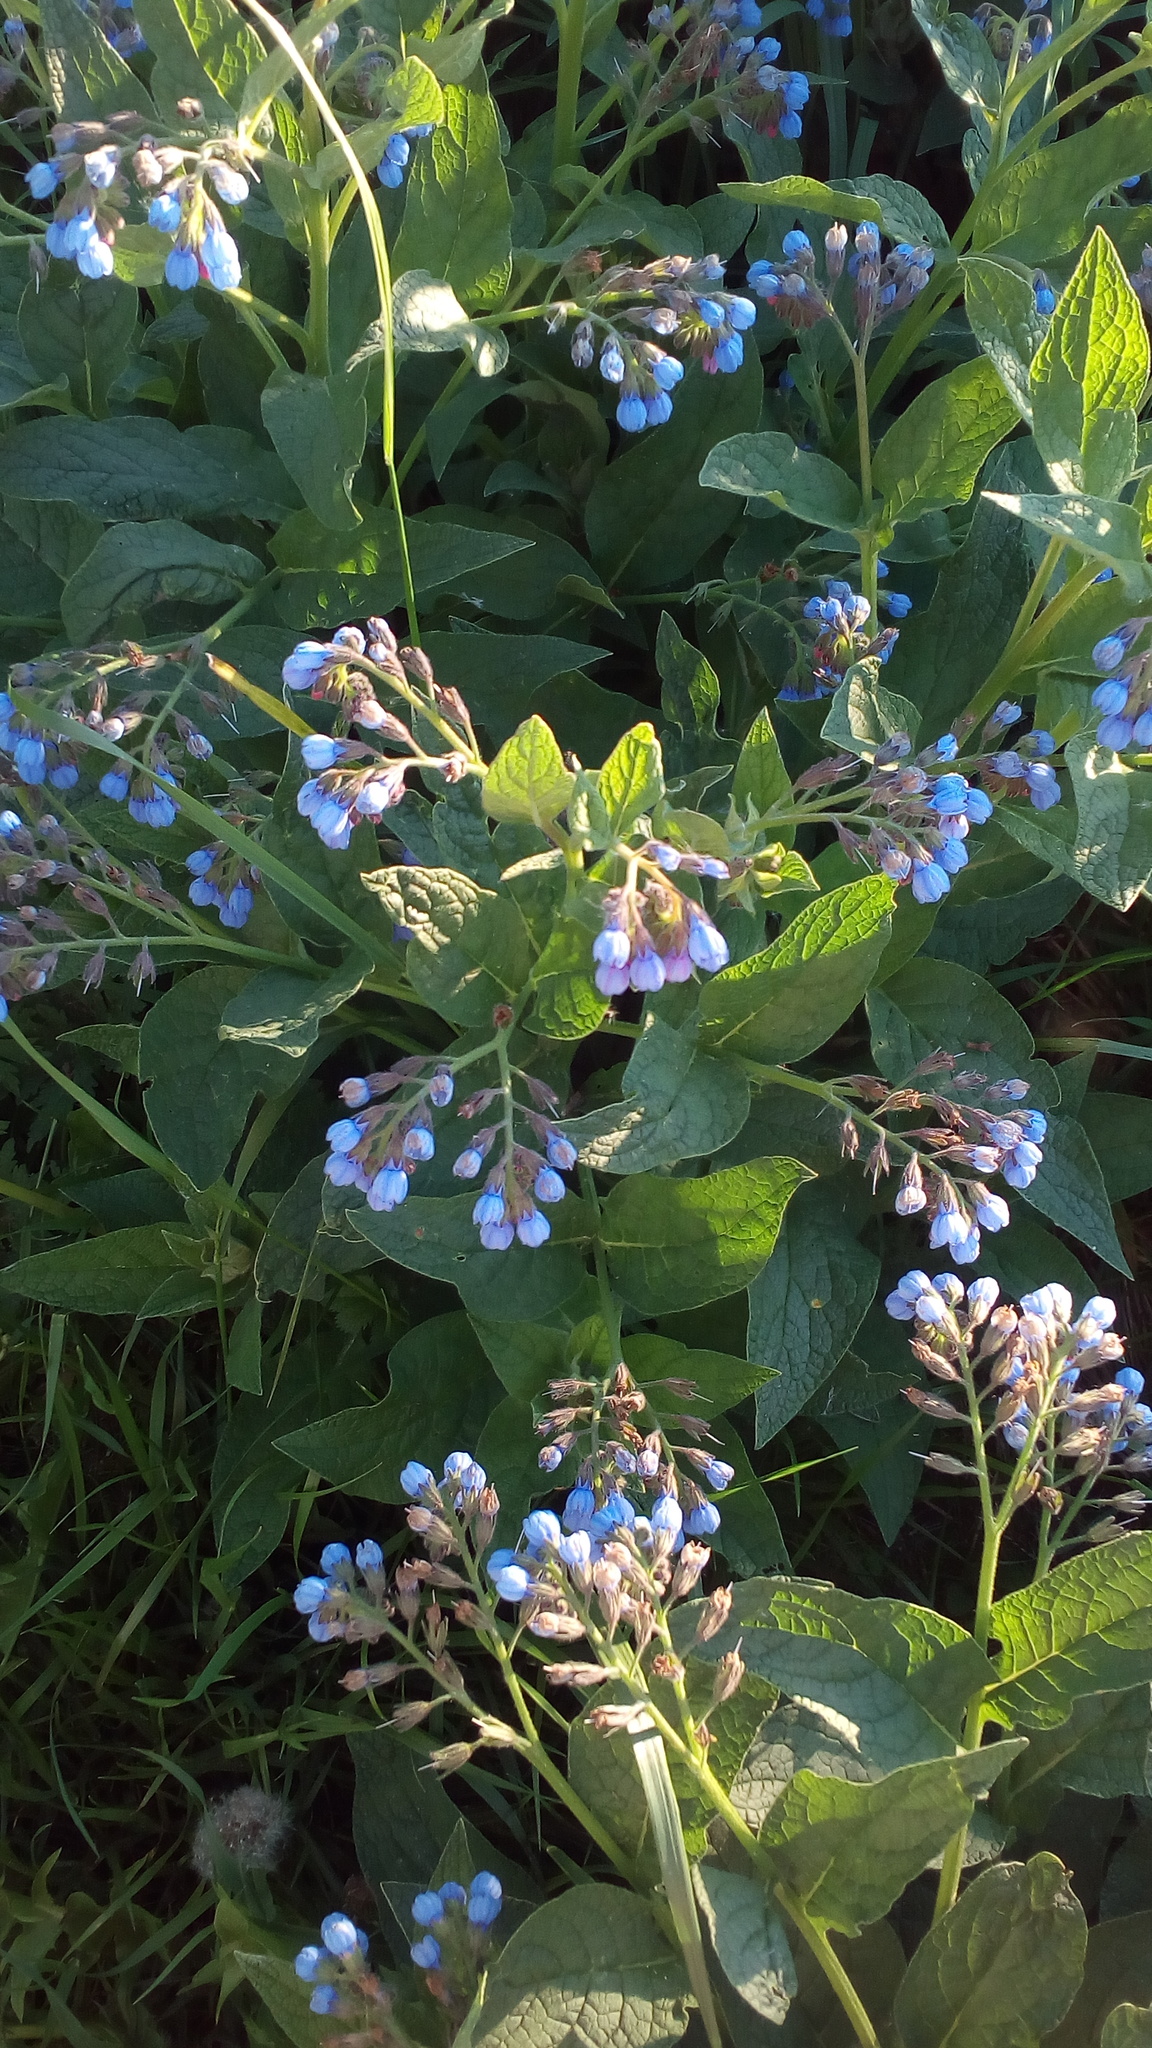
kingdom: Plantae
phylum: Tracheophyta
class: Magnoliopsida
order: Boraginales
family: Boraginaceae
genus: Symphytum
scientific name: Symphytum caucasicum
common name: Caucasian comfrey
